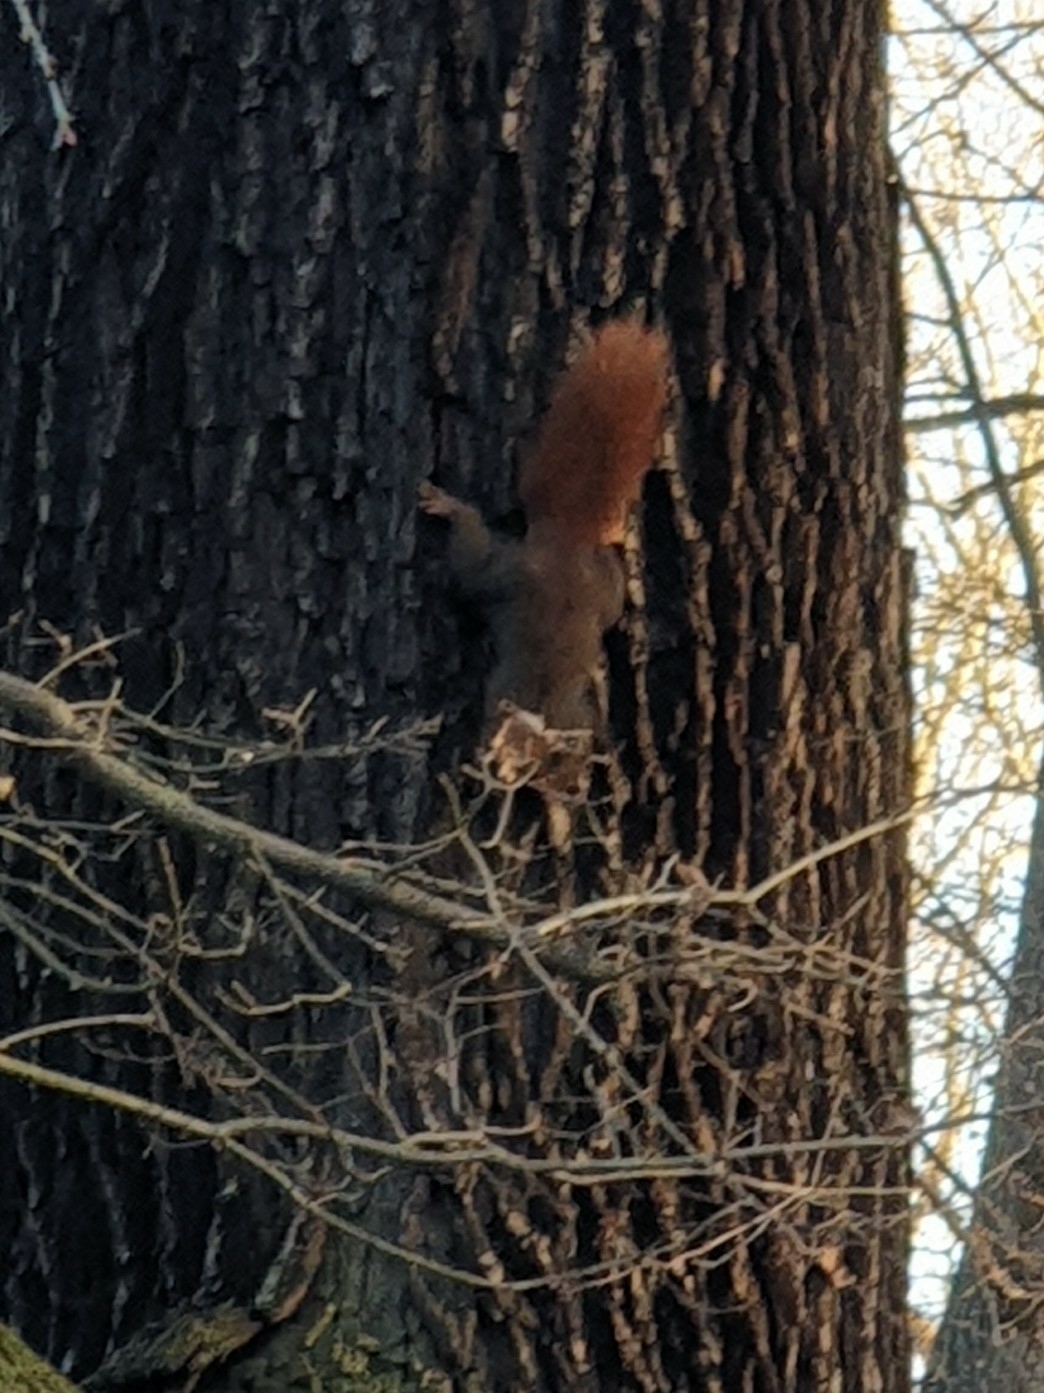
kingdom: Animalia
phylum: Chordata
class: Mammalia
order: Rodentia
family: Sciuridae
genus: Sciurus
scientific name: Sciurus vulgaris
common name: Eurasian red squirrel
